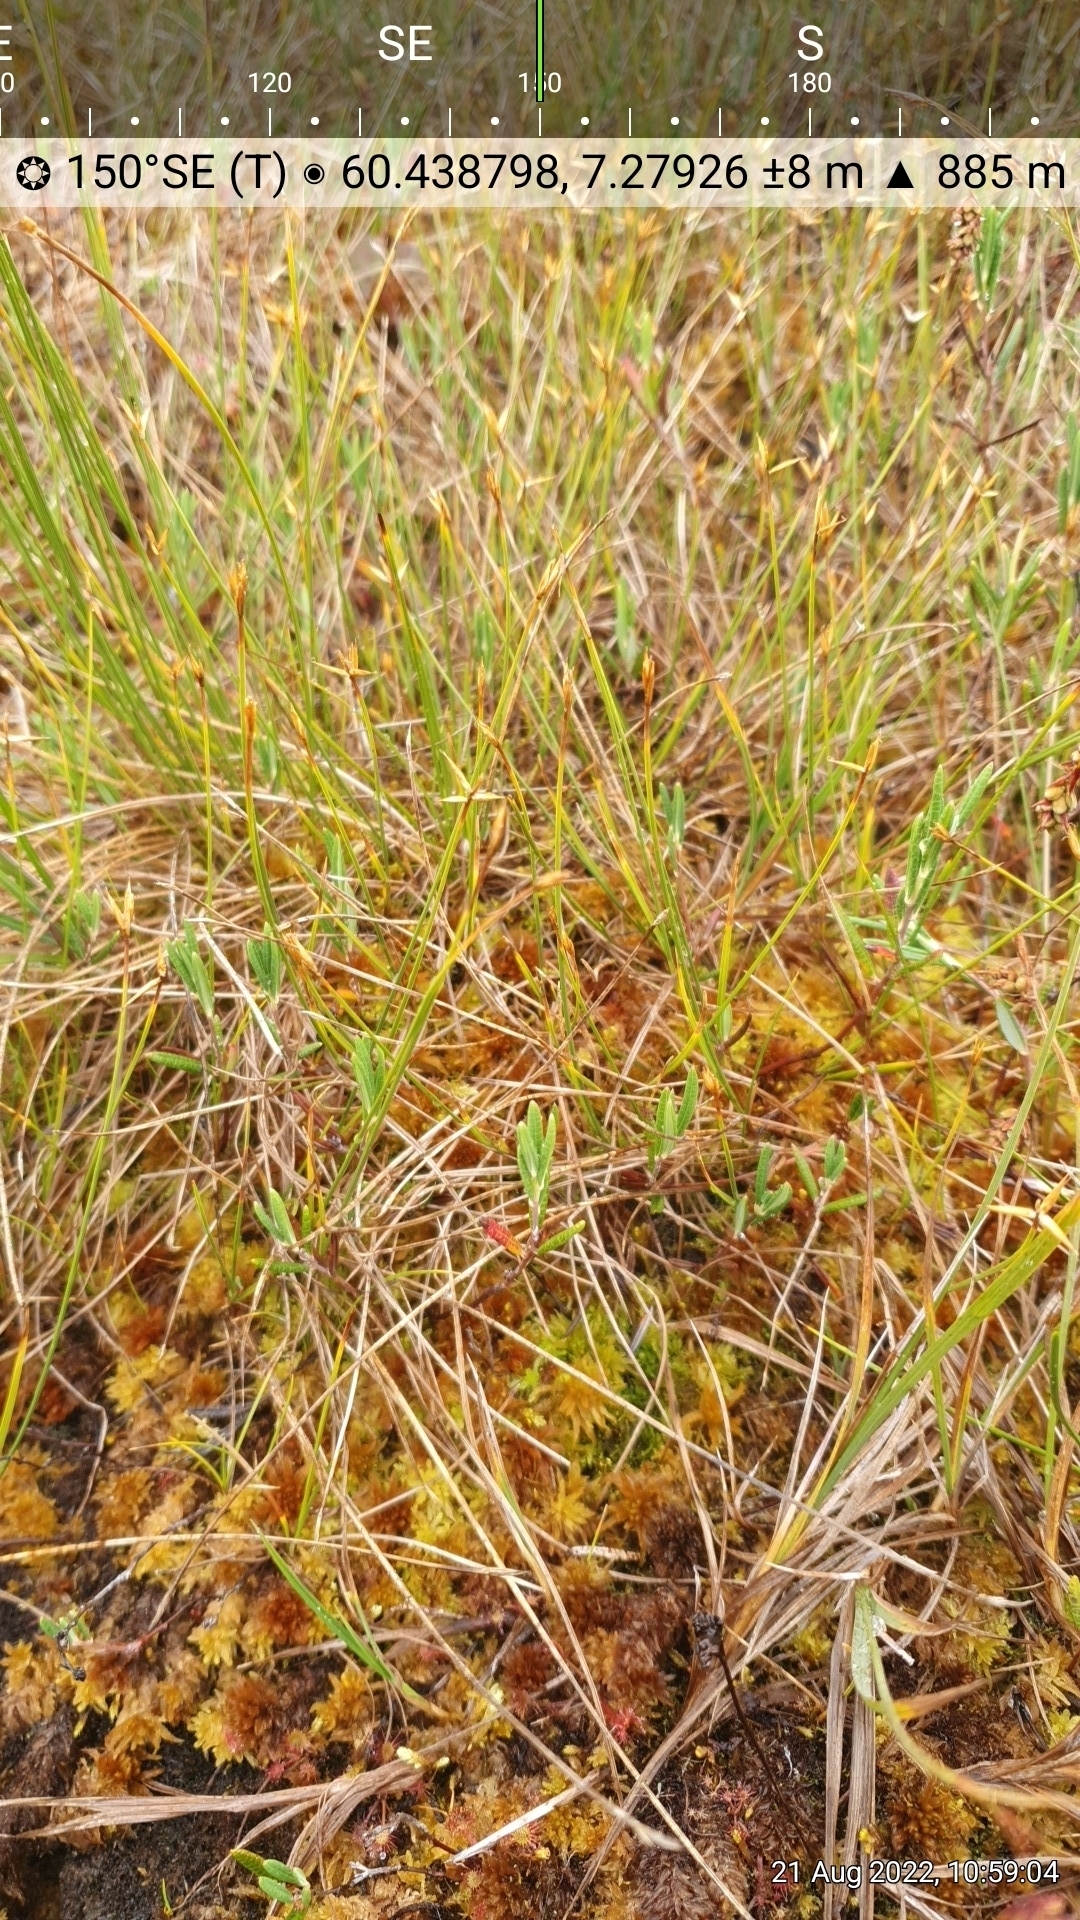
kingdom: Plantae
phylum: Tracheophyta
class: Magnoliopsida
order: Ericales
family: Ericaceae
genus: Andromeda
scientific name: Andromeda polifolia
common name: Bog-rosemary
